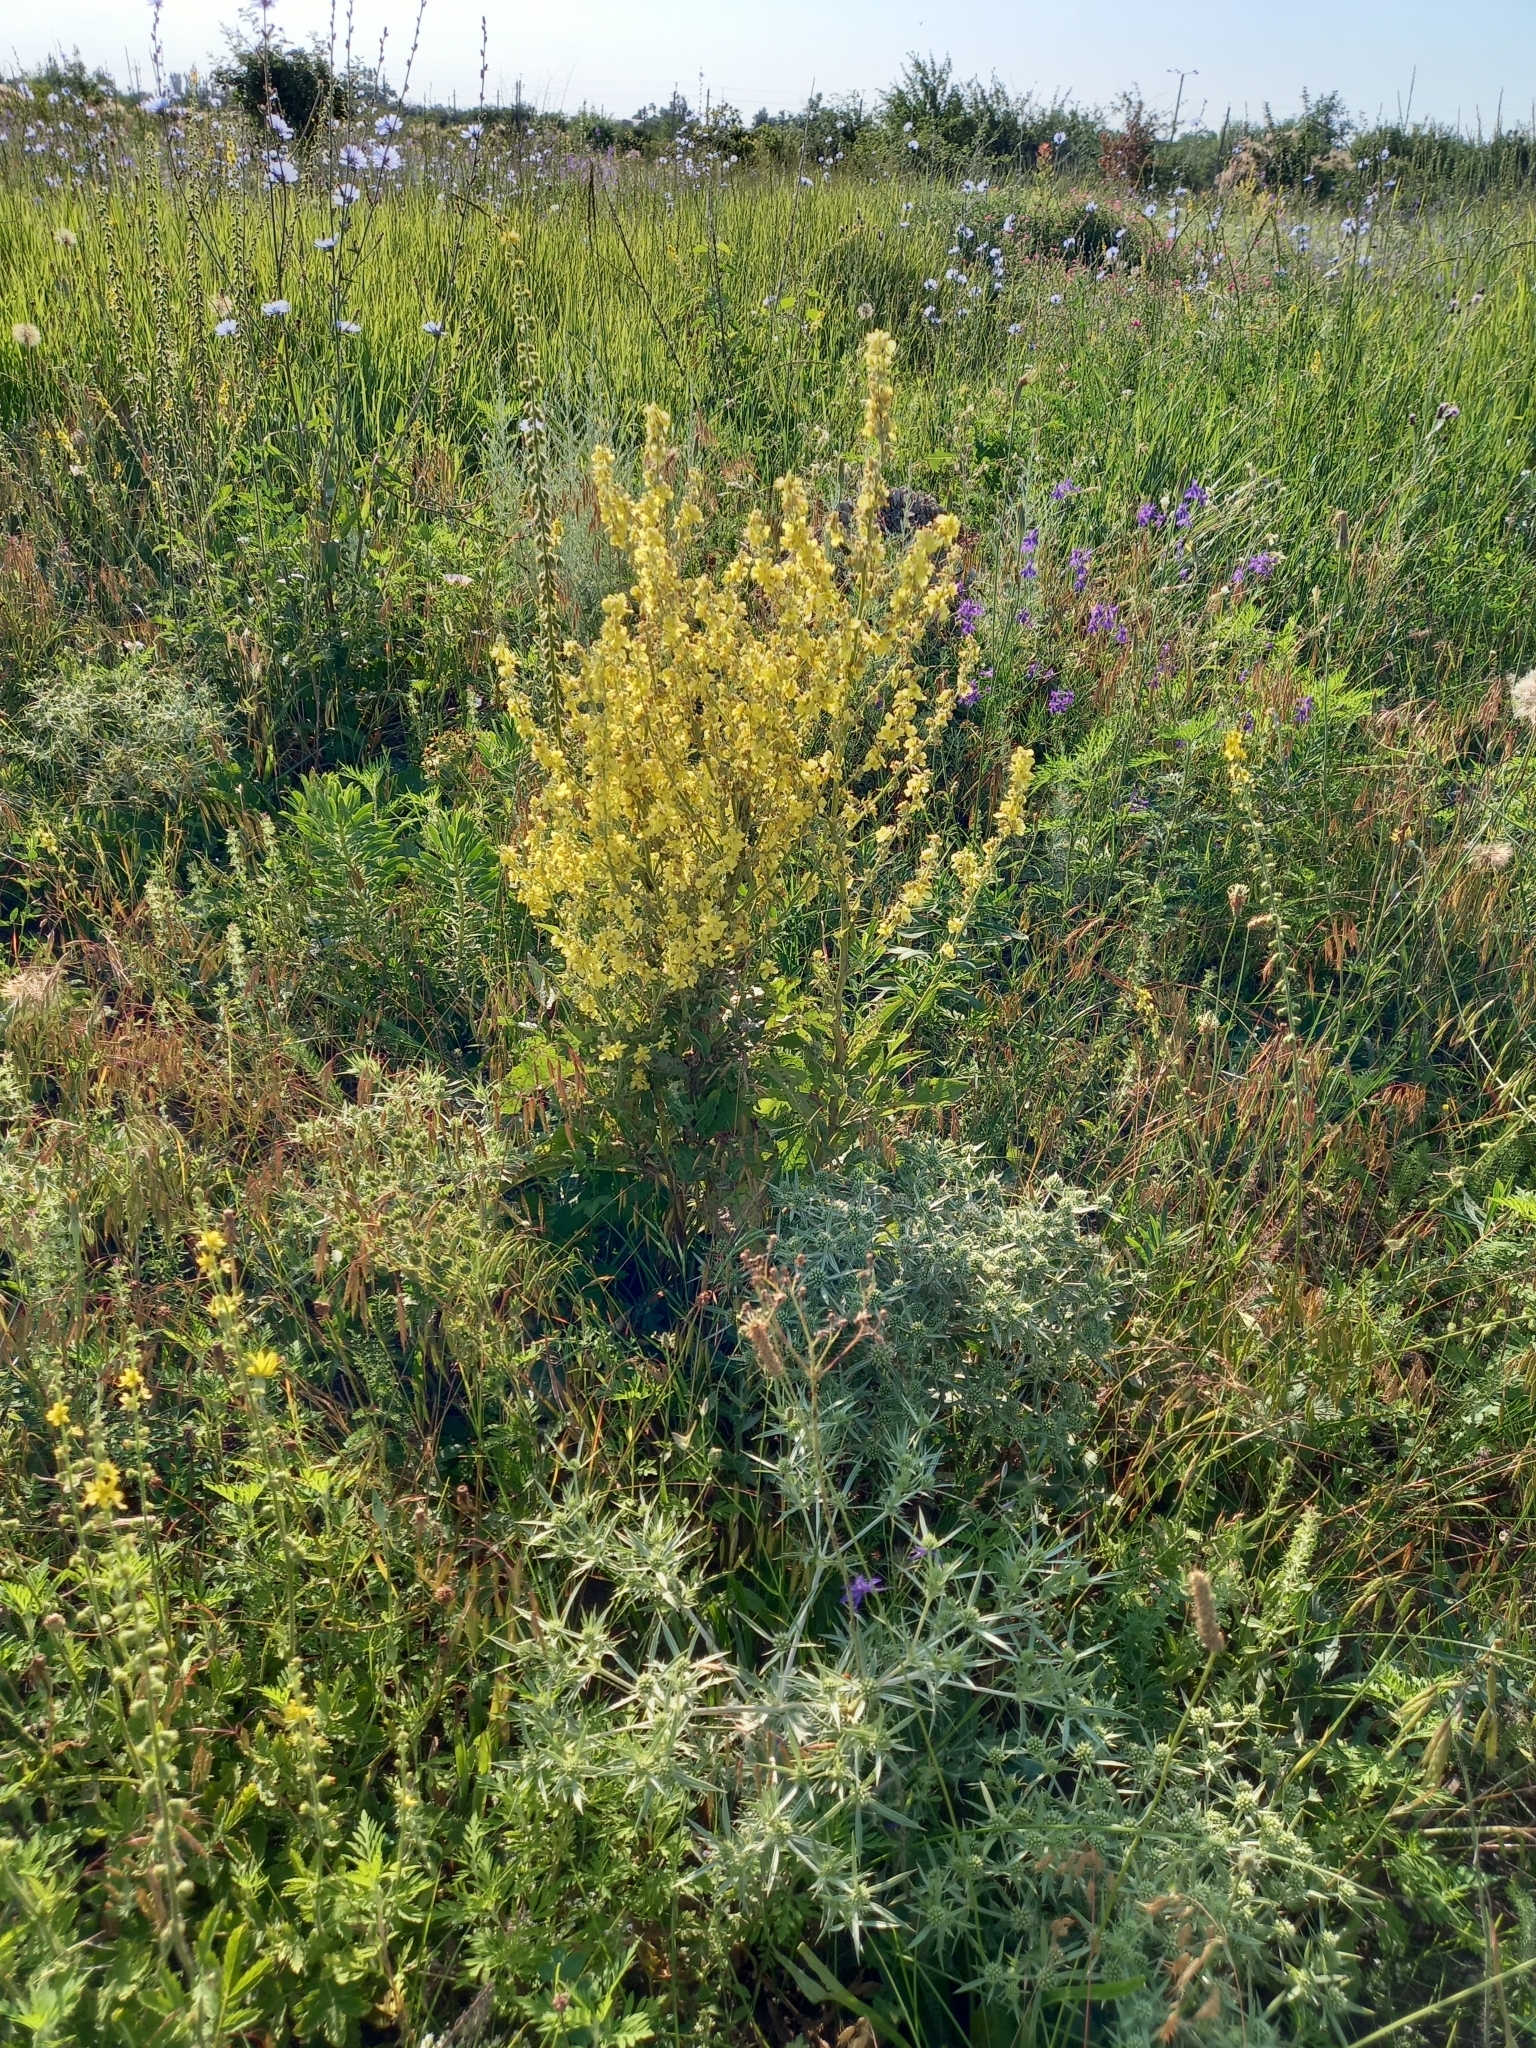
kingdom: Plantae
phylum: Tracheophyta
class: Magnoliopsida
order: Apiales
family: Apiaceae
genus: Eryngium
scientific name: Eryngium campestre
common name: Field eryngo
